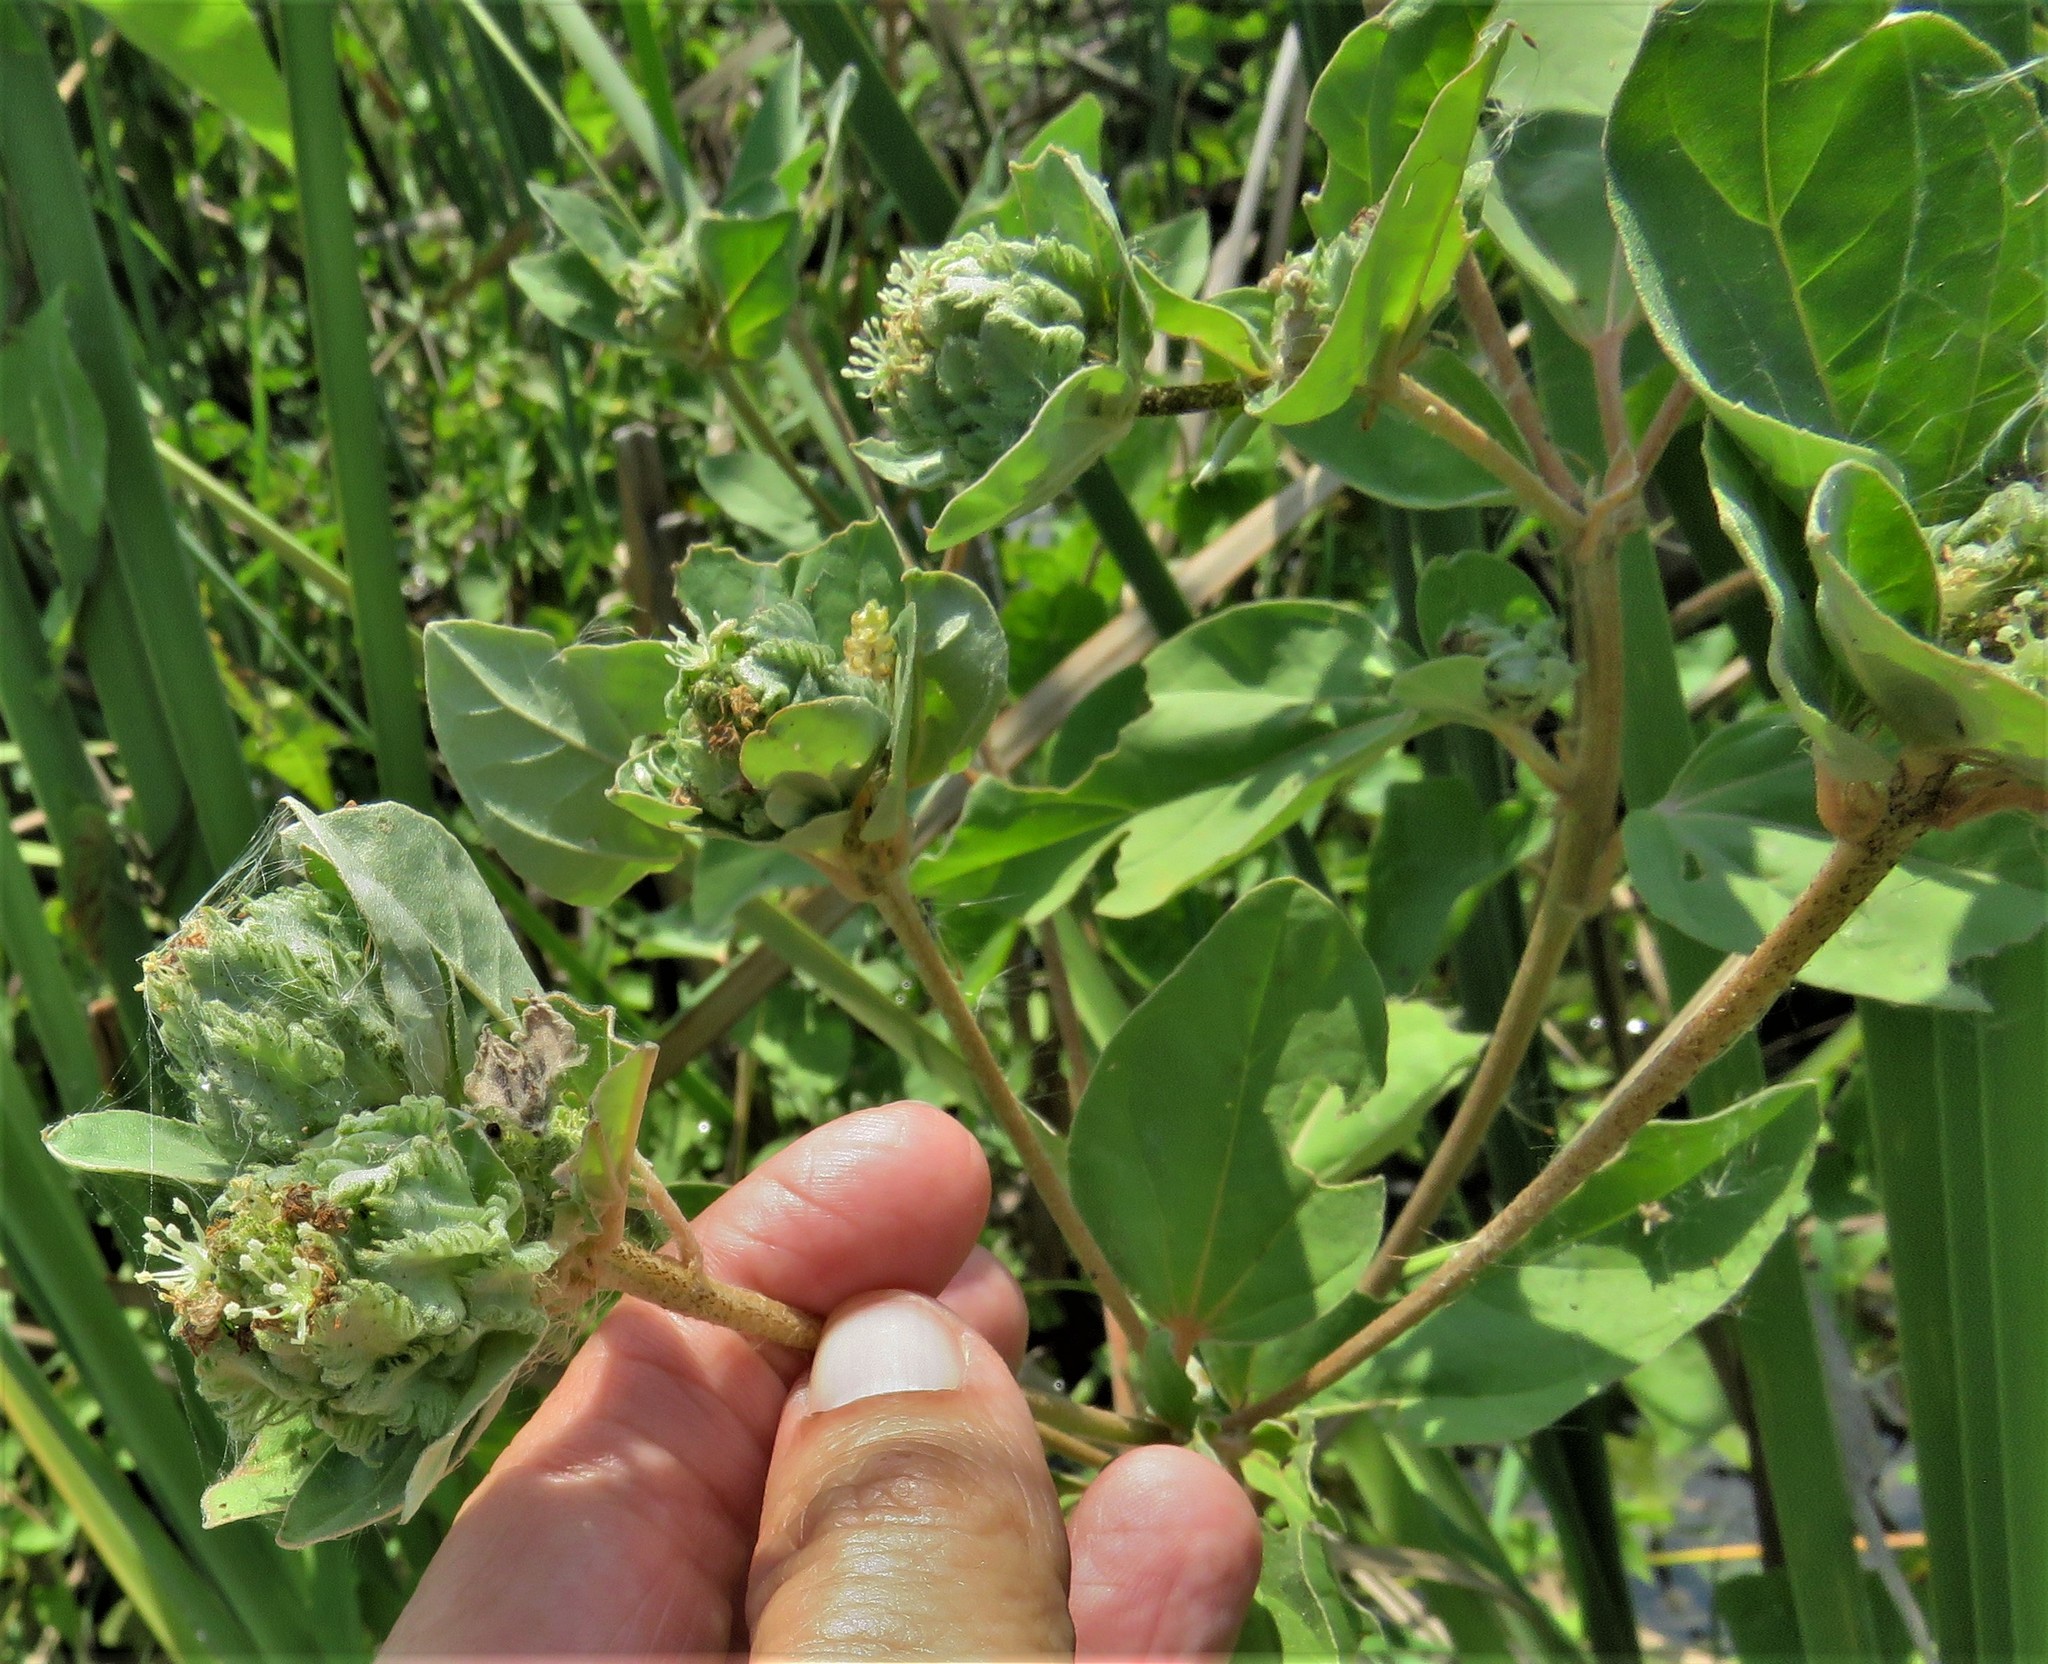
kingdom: Plantae
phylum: Tracheophyta
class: Magnoliopsida
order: Malpighiales
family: Euphorbiaceae
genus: Croton
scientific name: Croton argenteus
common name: Silver july croton
